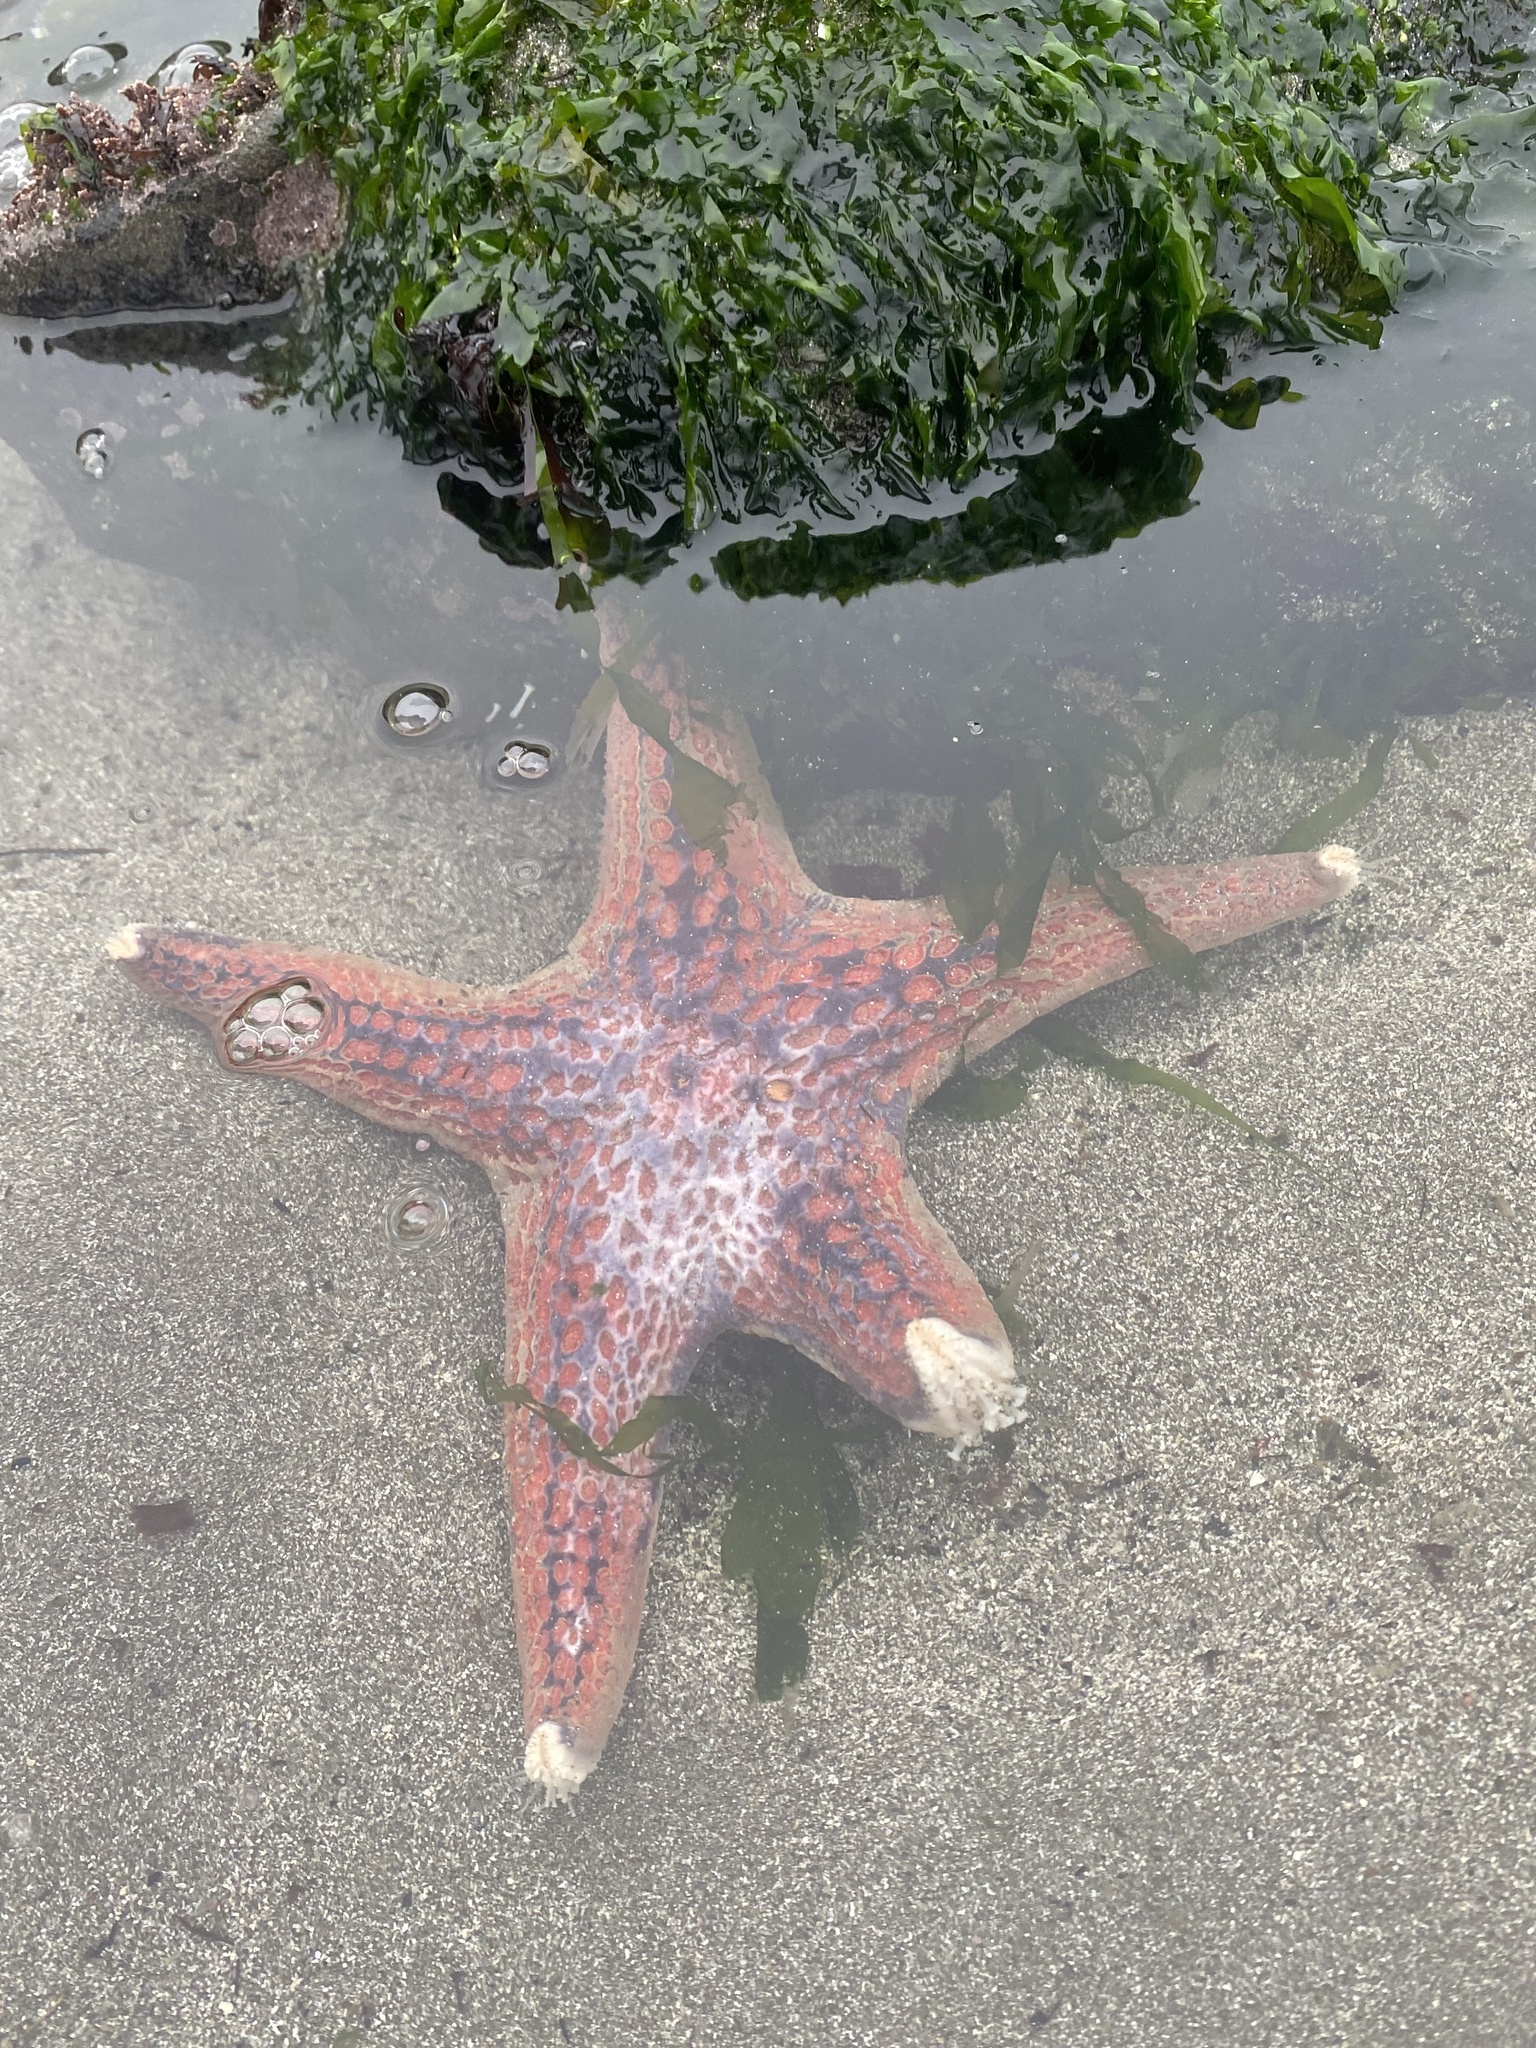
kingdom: Animalia
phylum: Echinodermata
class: Asteroidea
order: Valvatida
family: Asteropseidae
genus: Dermasterias
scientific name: Dermasterias imbricata
